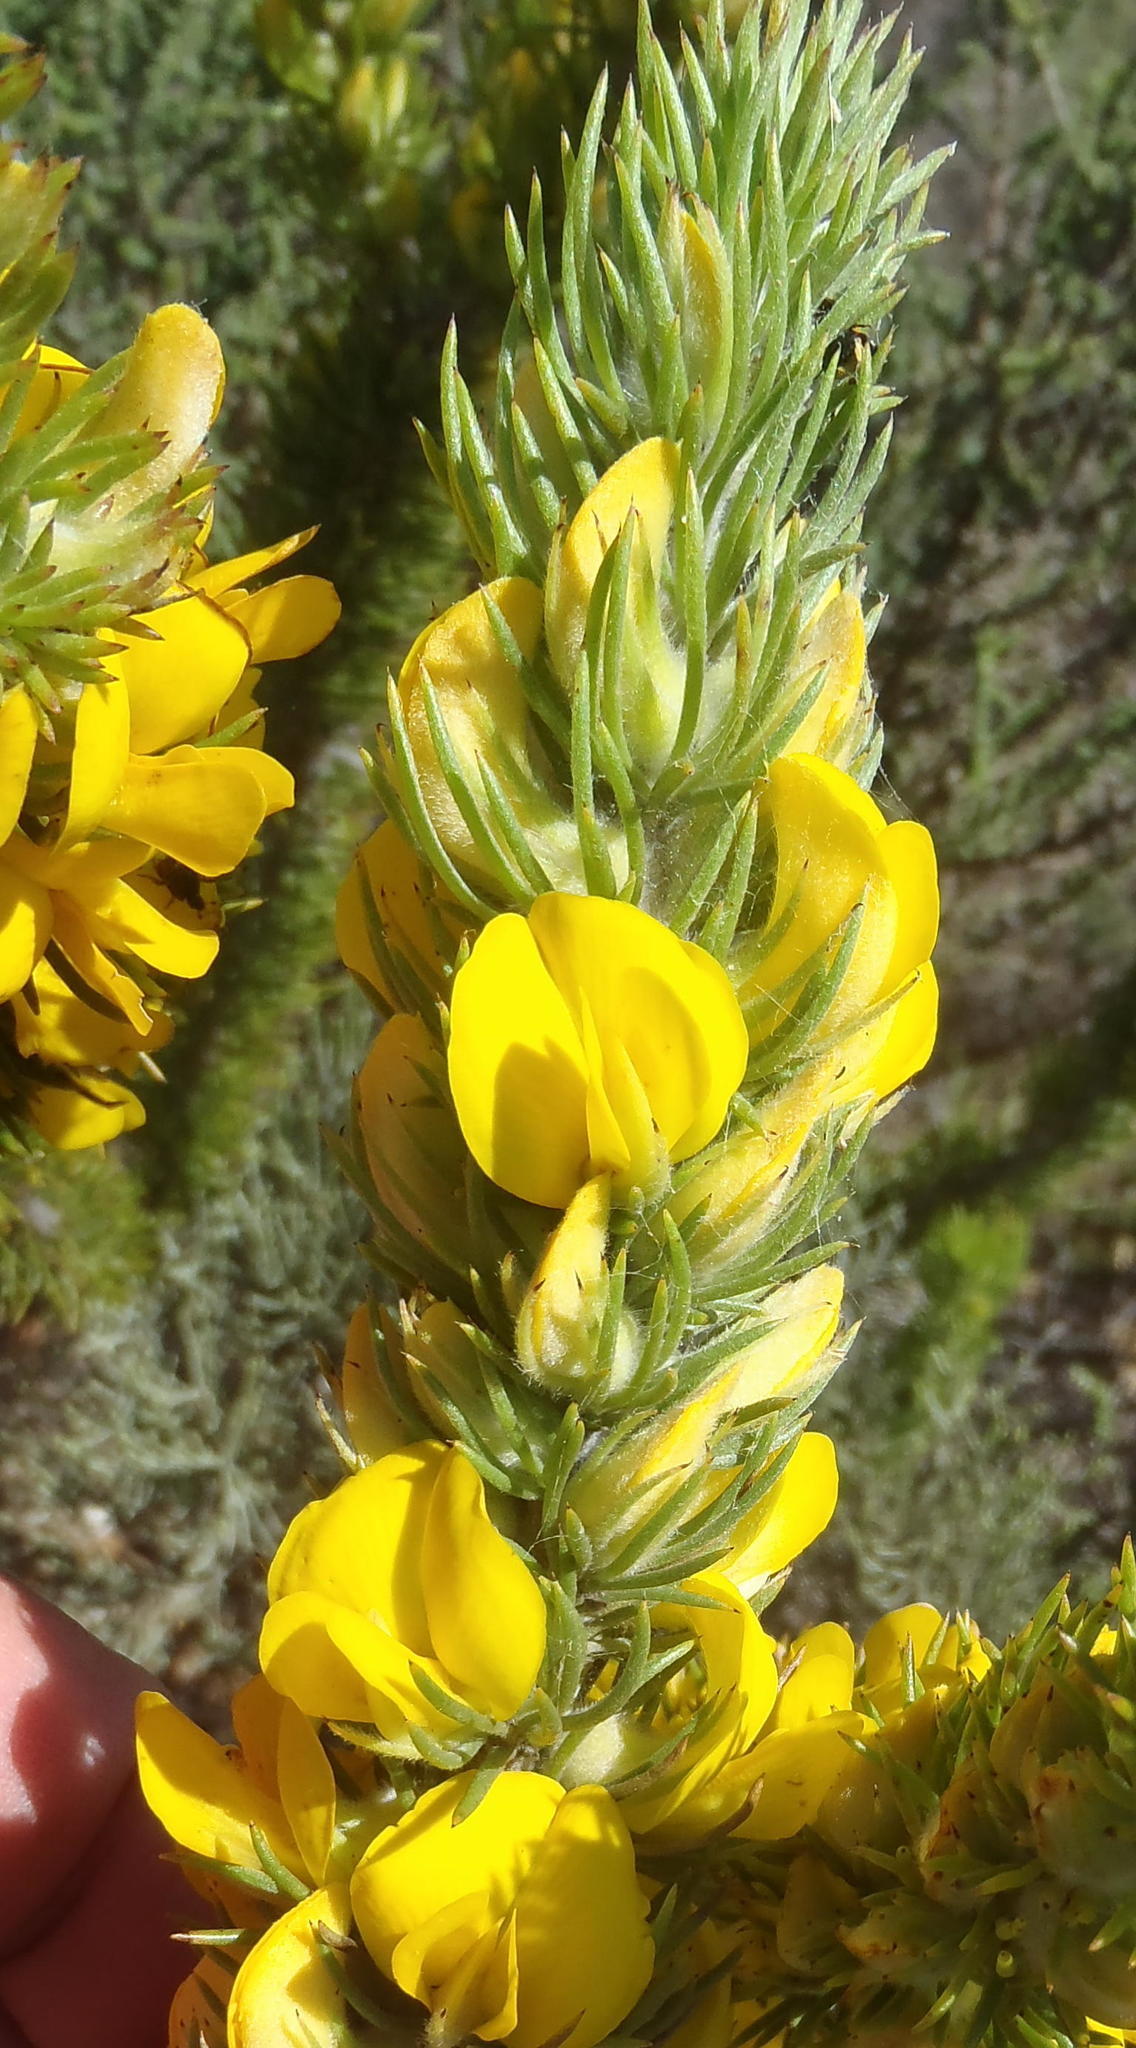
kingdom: Plantae
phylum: Tracheophyta
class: Magnoliopsida
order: Fabales
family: Fabaceae
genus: Aspalathus
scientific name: Aspalathus acanthes
